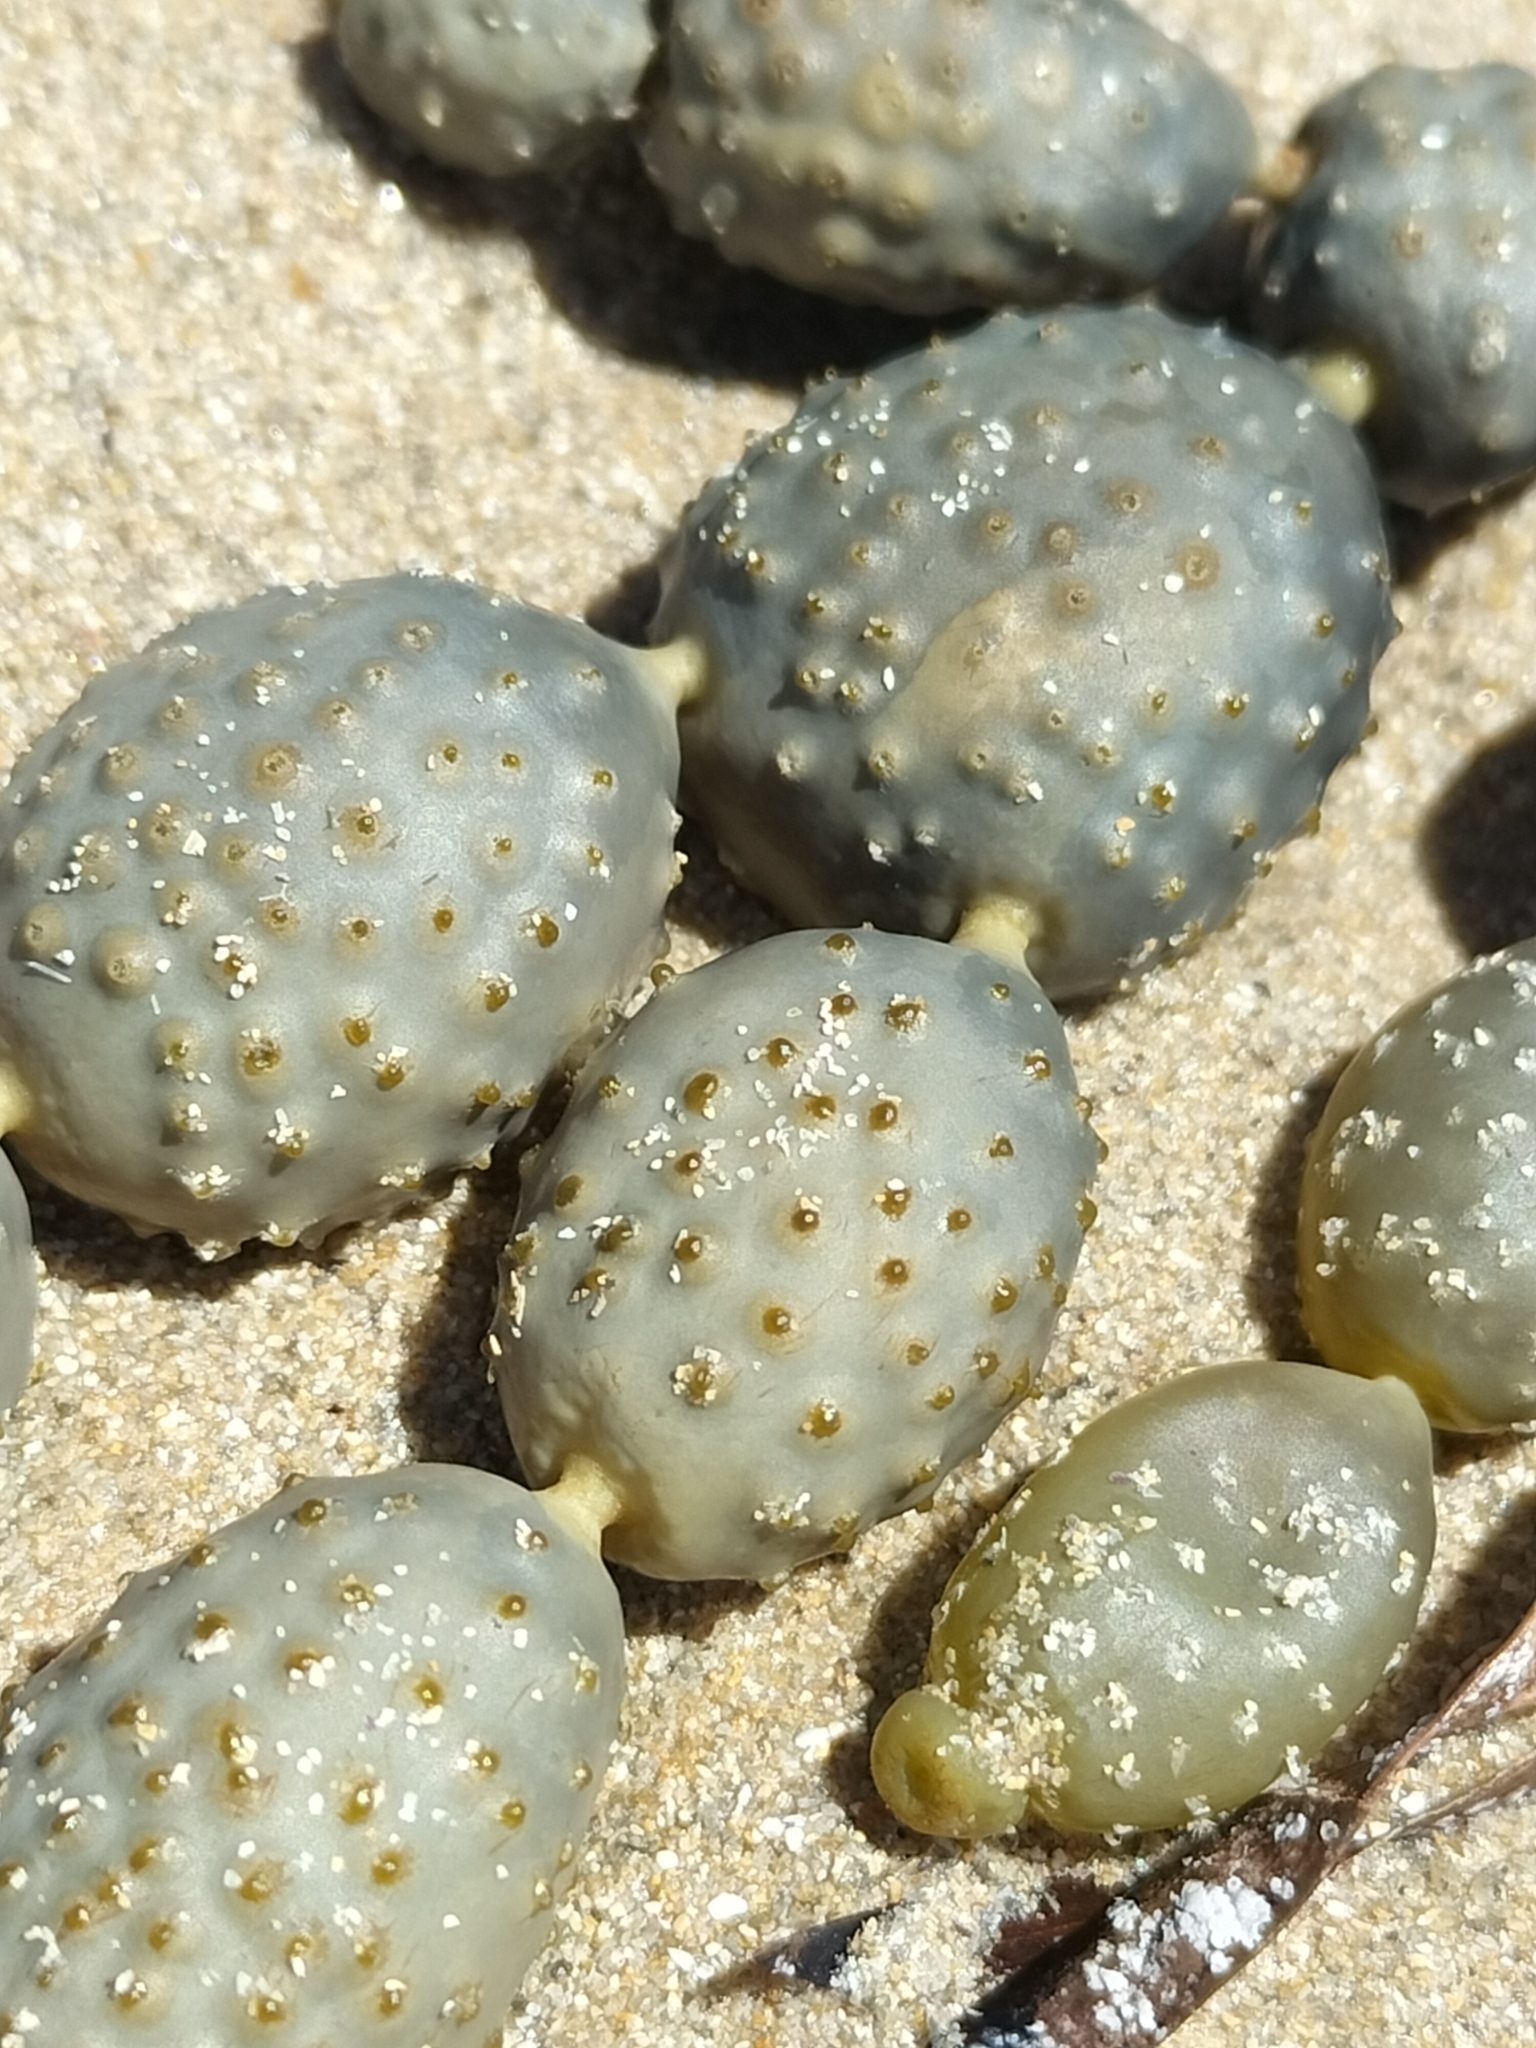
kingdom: Chromista
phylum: Ochrophyta
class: Phaeophyceae
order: Fucales
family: Hormosiraceae
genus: Hormosira
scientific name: Hormosira banksii
